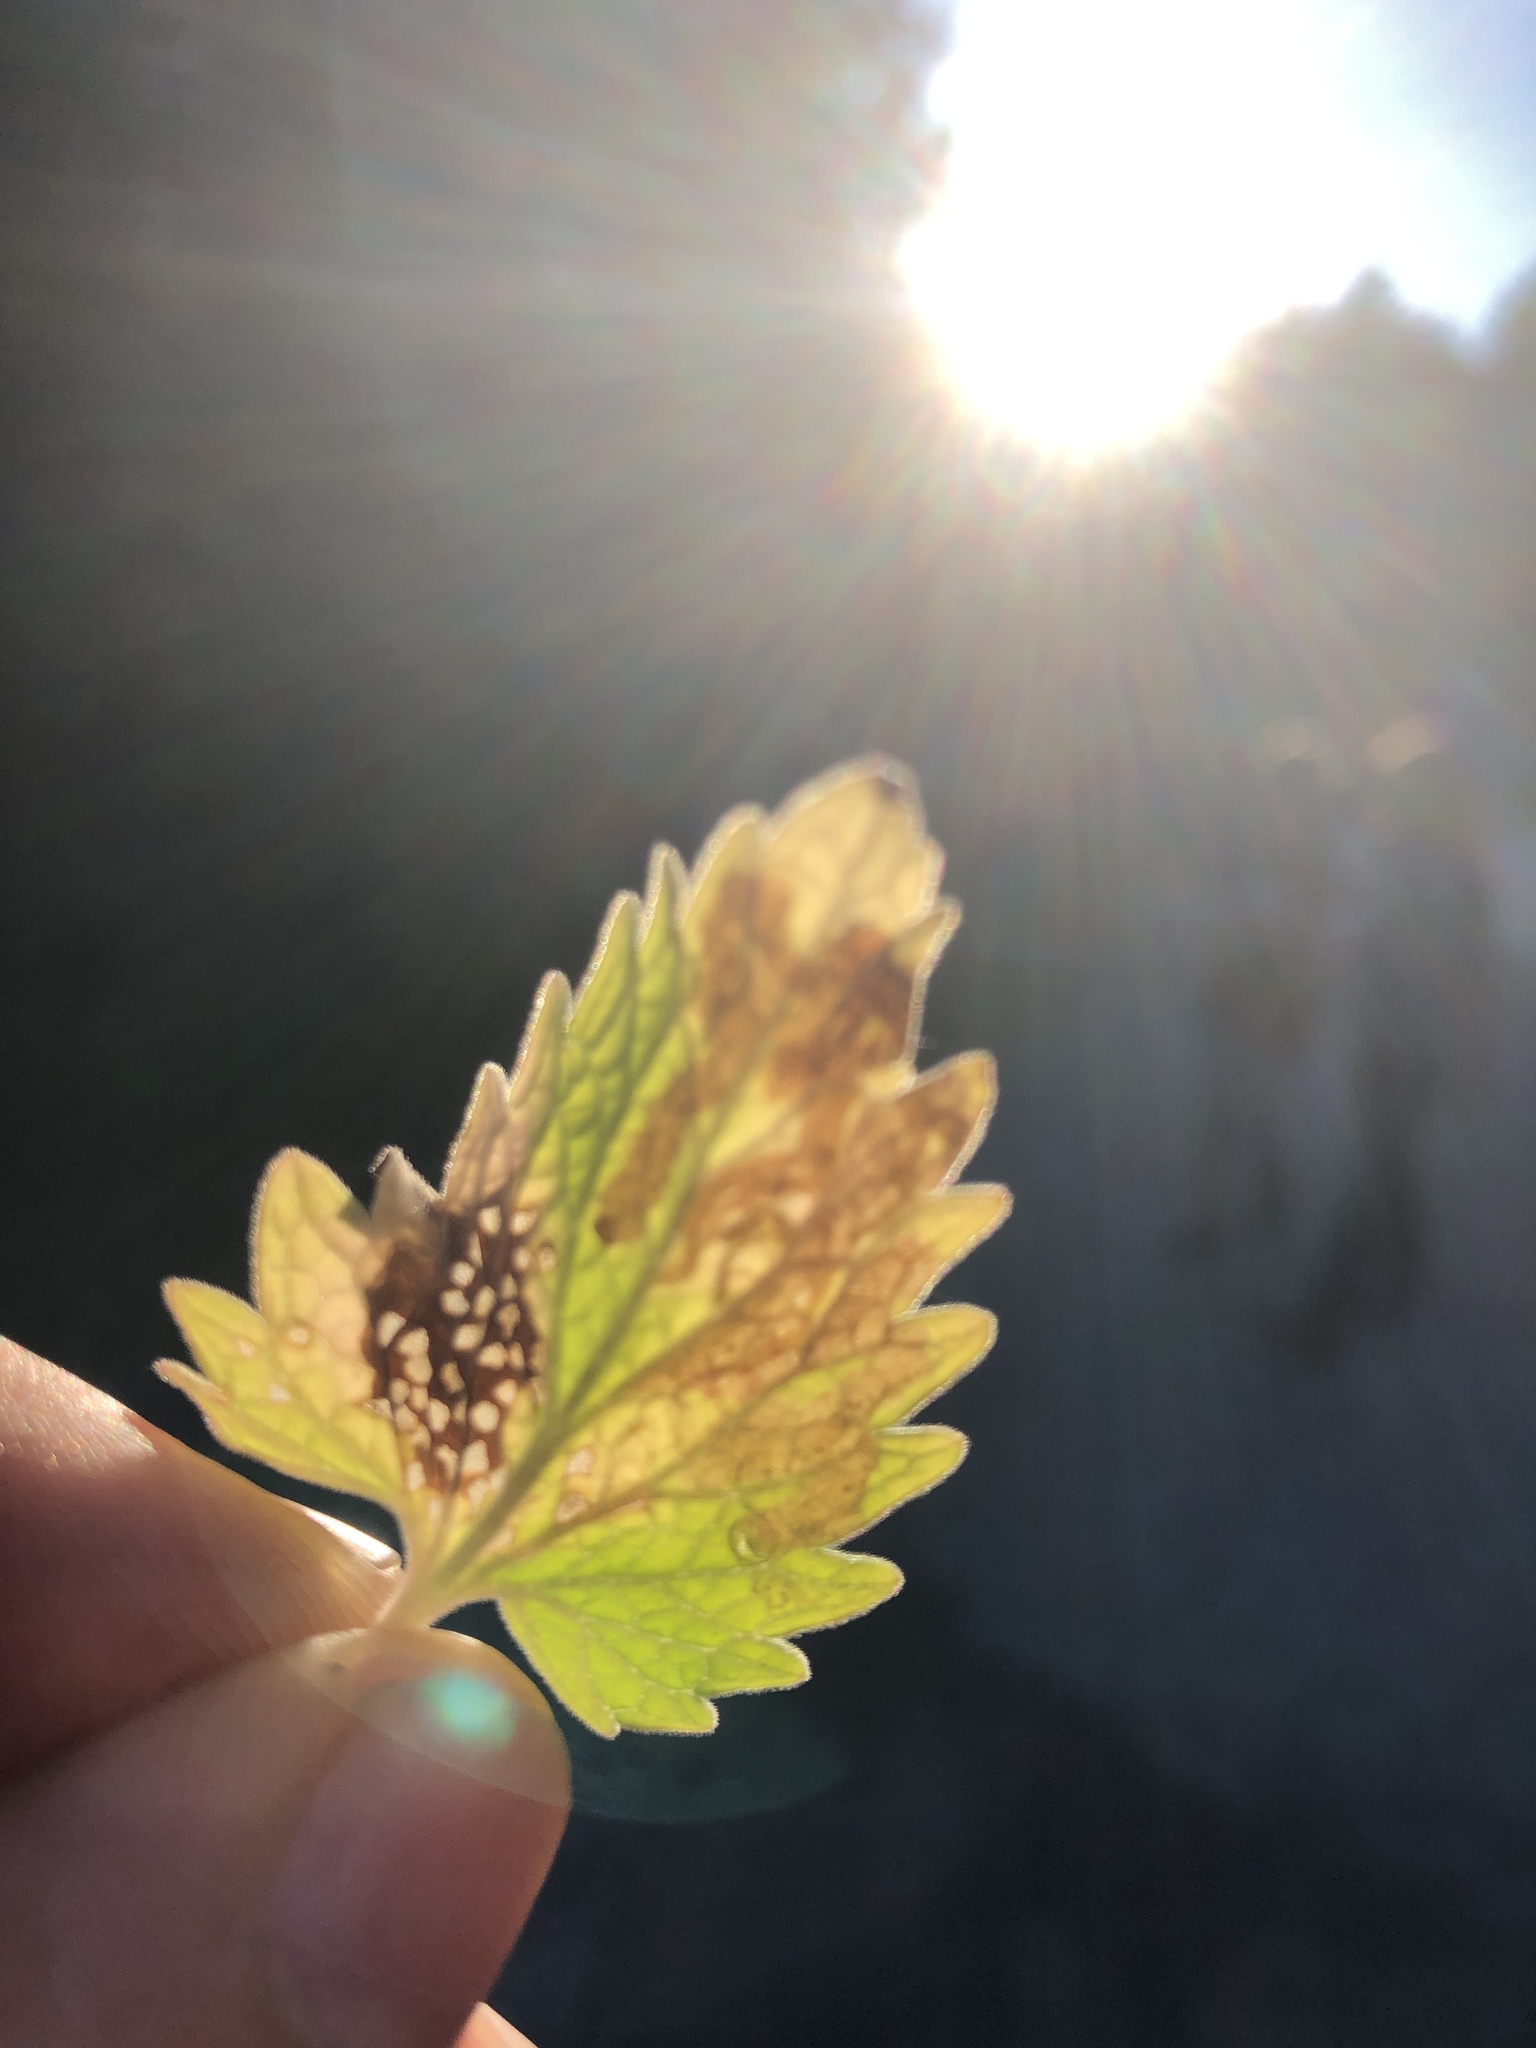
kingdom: Animalia
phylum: Arthropoda
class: Insecta
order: Diptera
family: Agromyzidae
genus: Phytomyza
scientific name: Phytomyza nepetae
